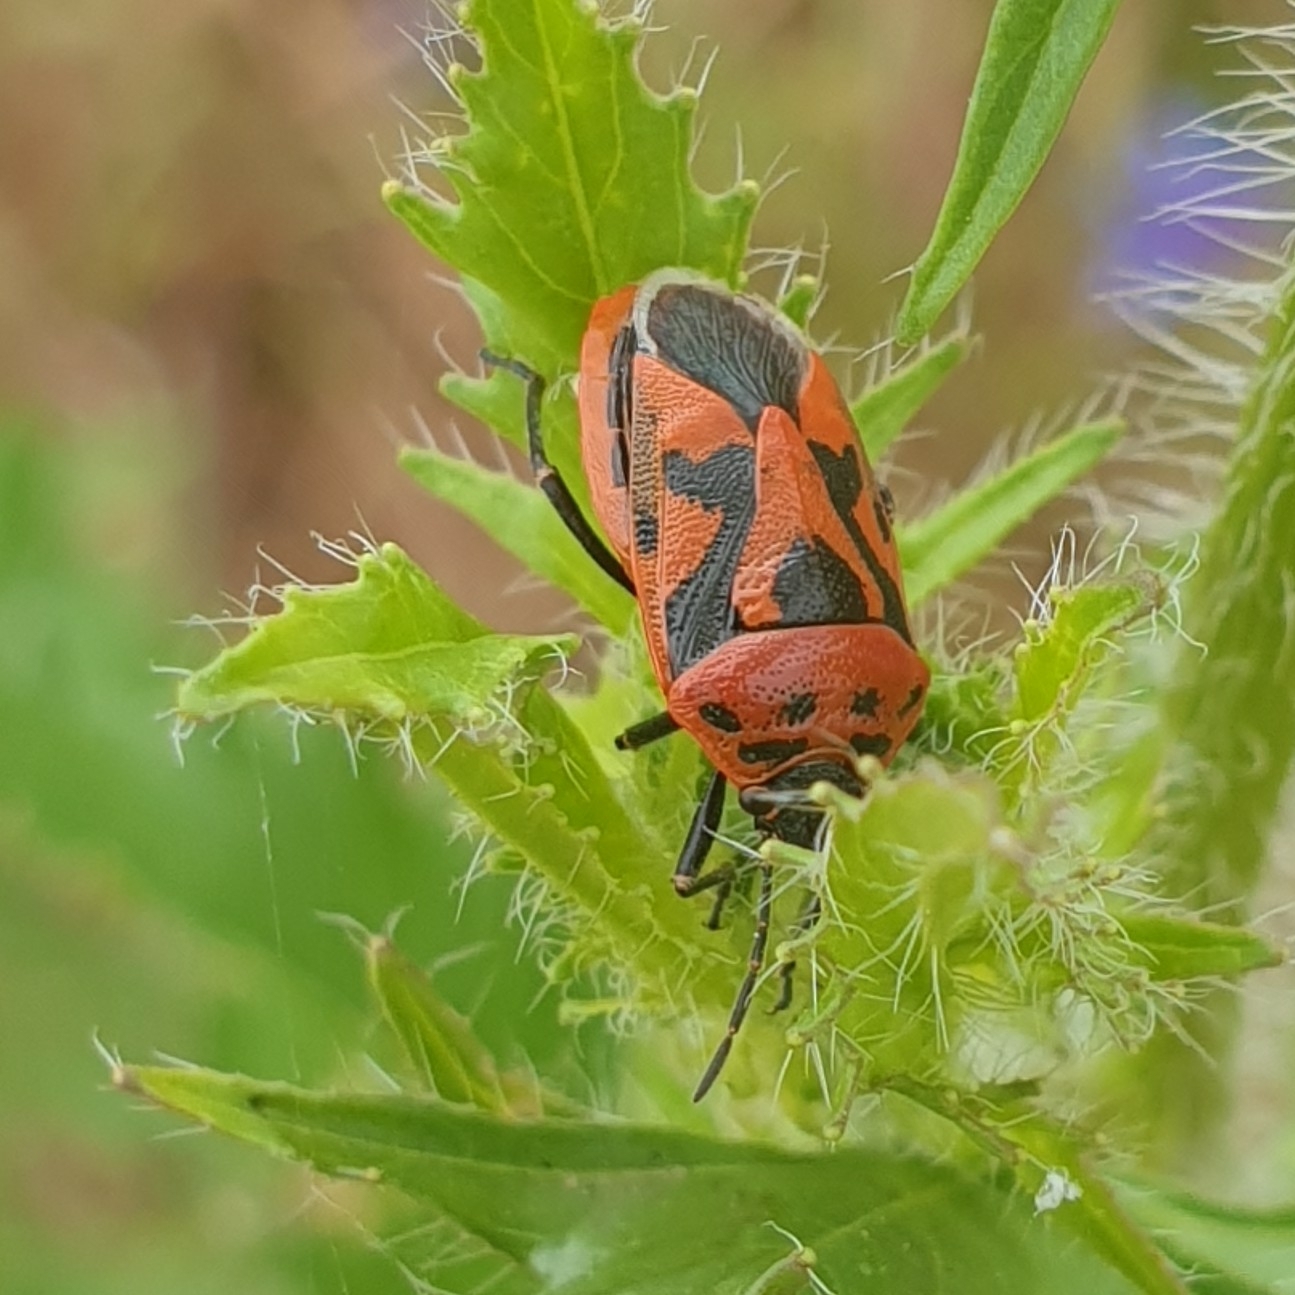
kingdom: Animalia
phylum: Arthropoda
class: Insecta
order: Hemiptera
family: Pentatomidae
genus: Eurydema
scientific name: Eurydema ornata
